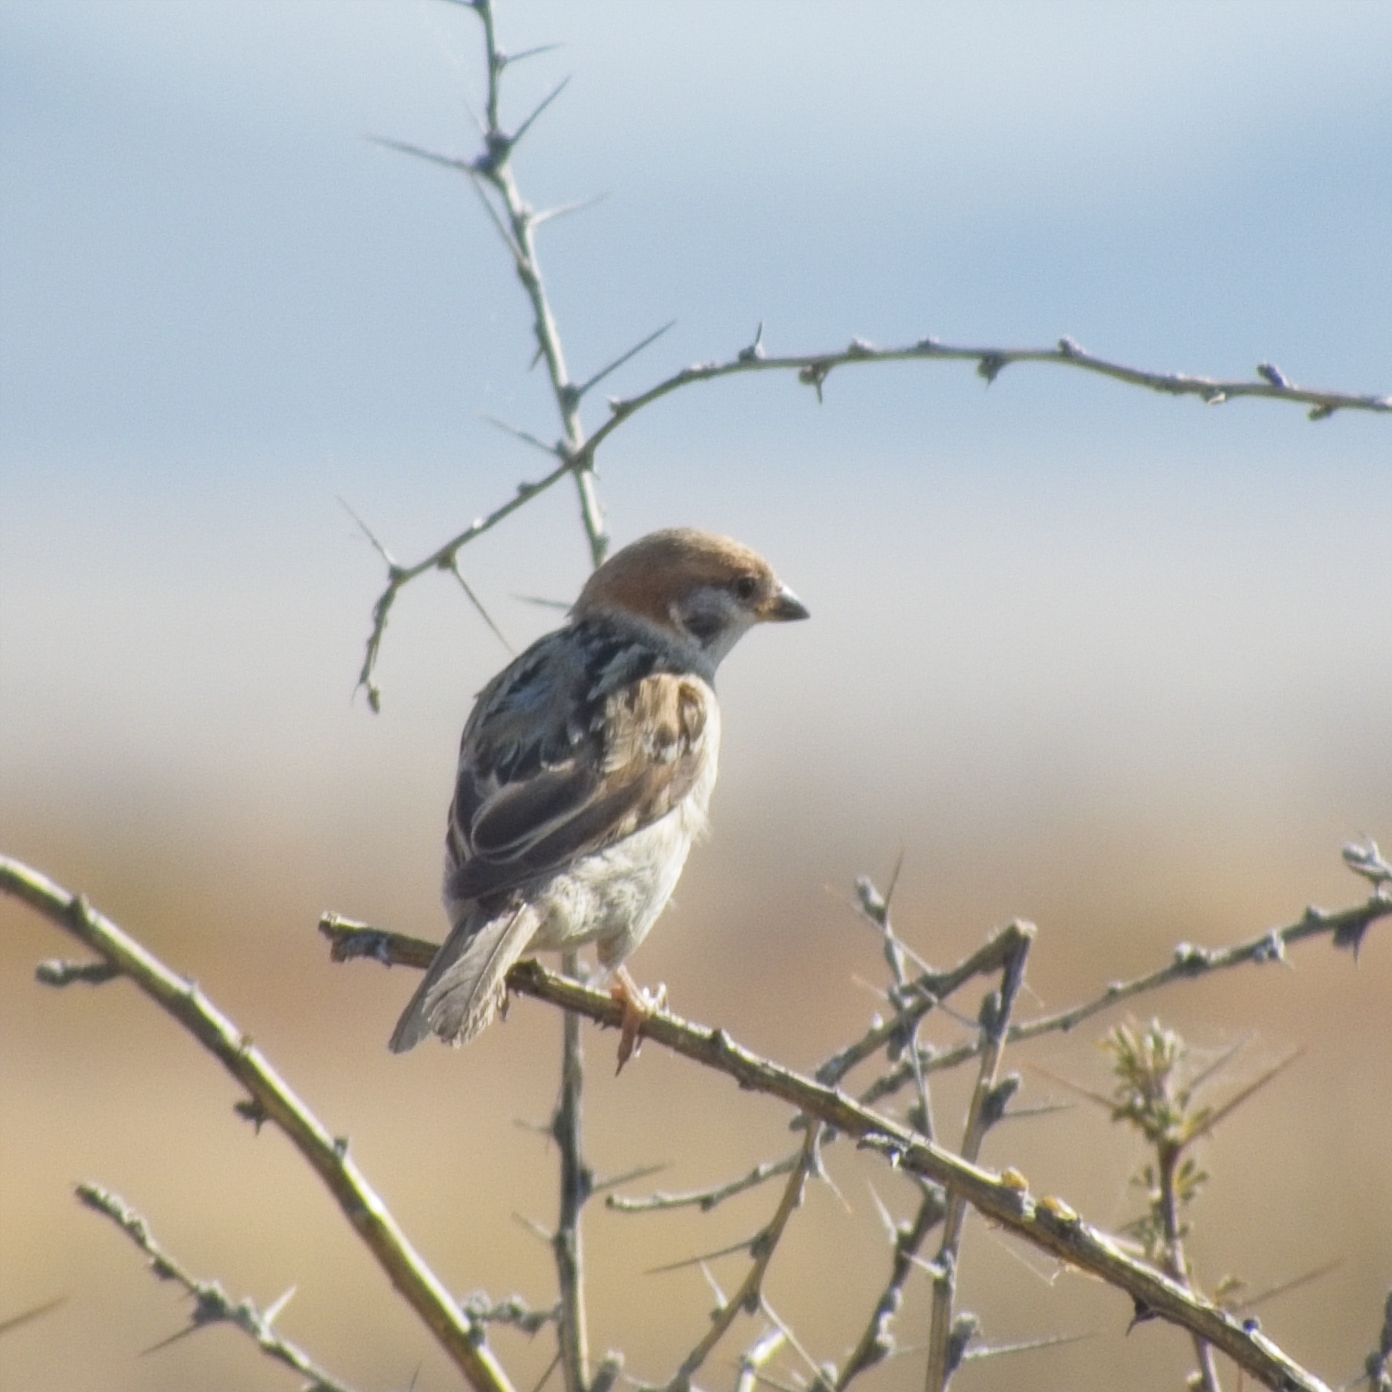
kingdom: Animalia
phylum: Chordata
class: Aves
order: Passeriformes
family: Passeridae
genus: Passer
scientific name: Passer montanus
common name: Eurasian tree sparrow
